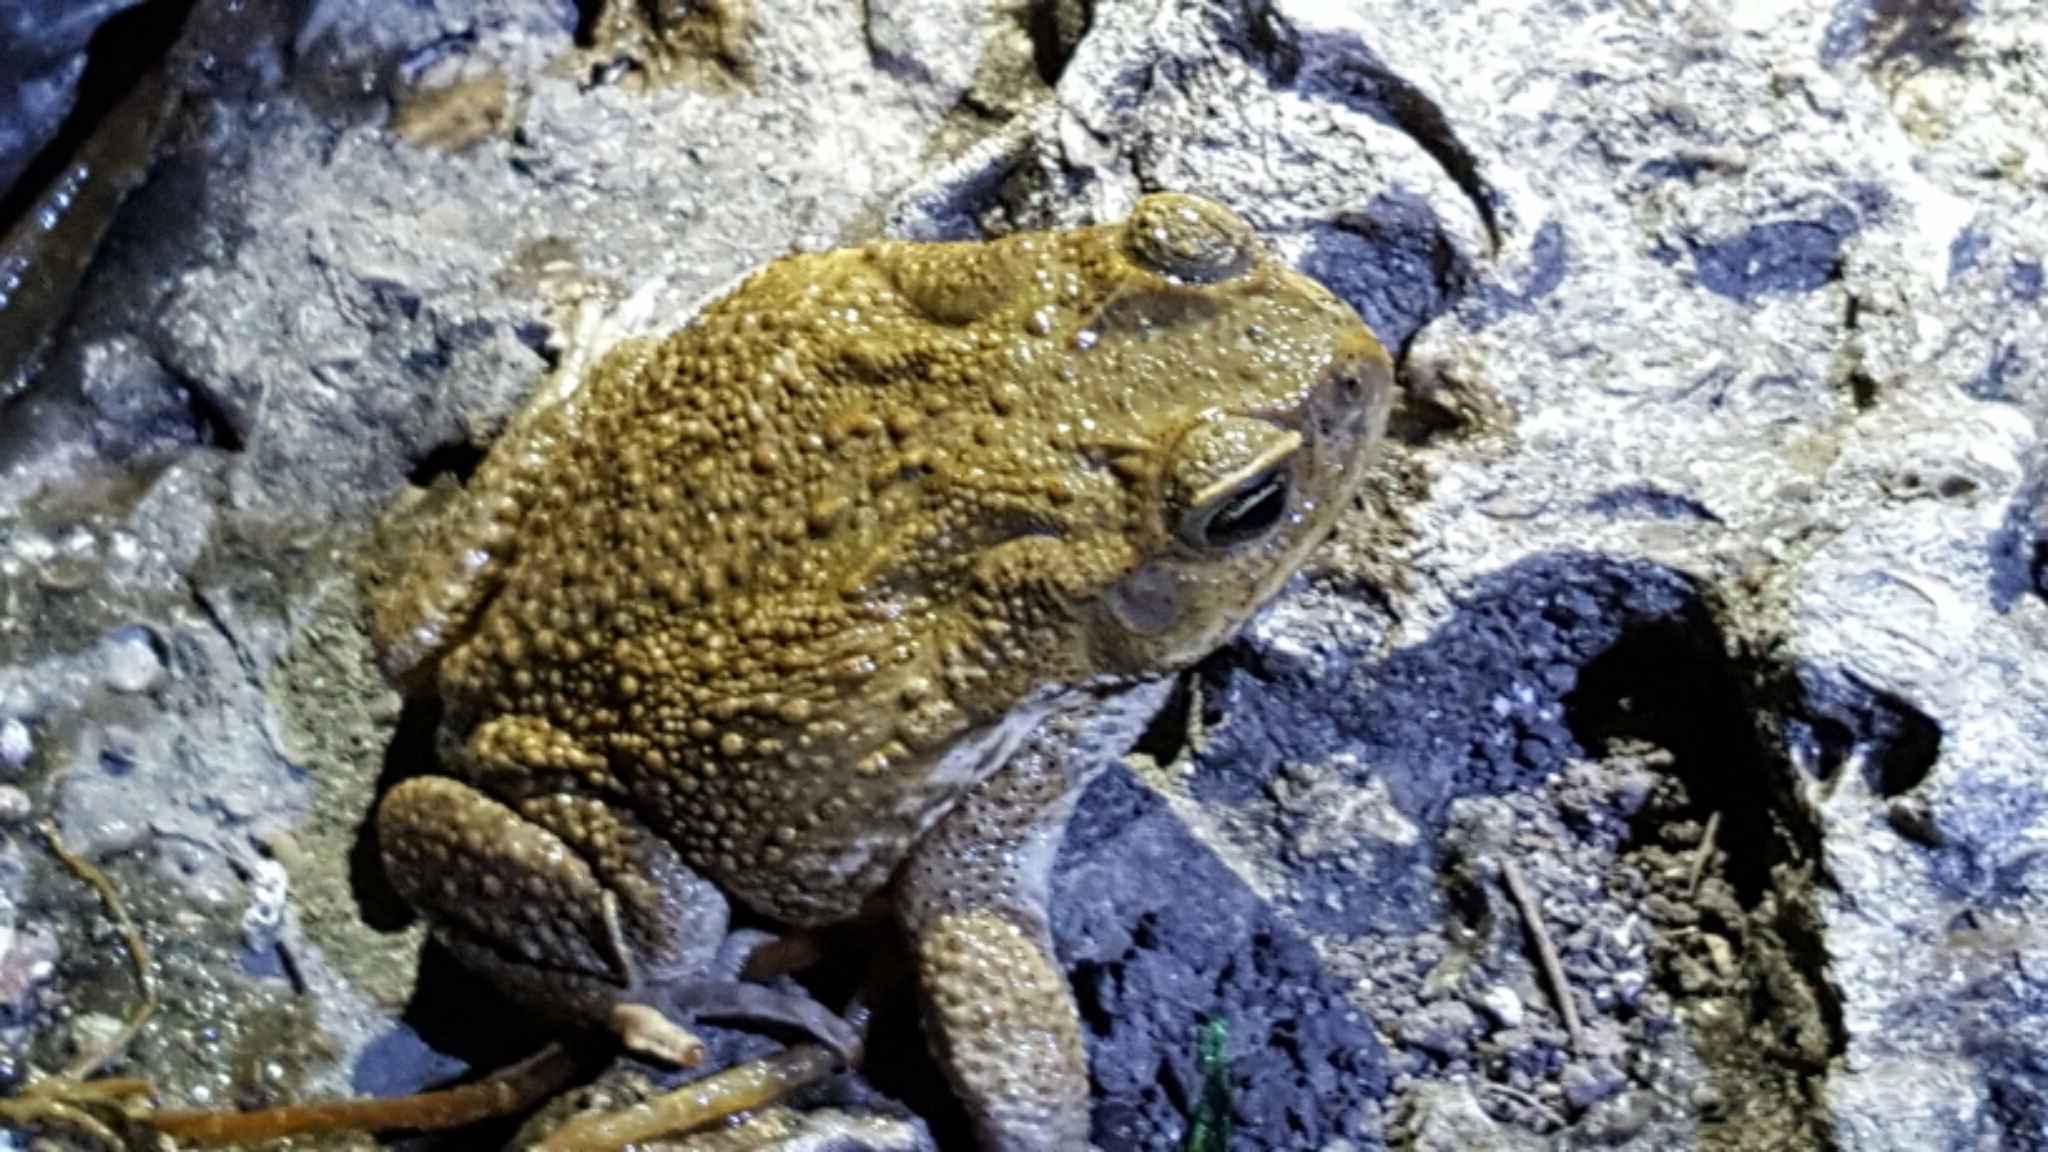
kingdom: Animalia
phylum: Chordata
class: Amphibia
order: Anura
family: Bufonidae
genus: Rhinella
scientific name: Rhinella marina
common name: Cane toad
